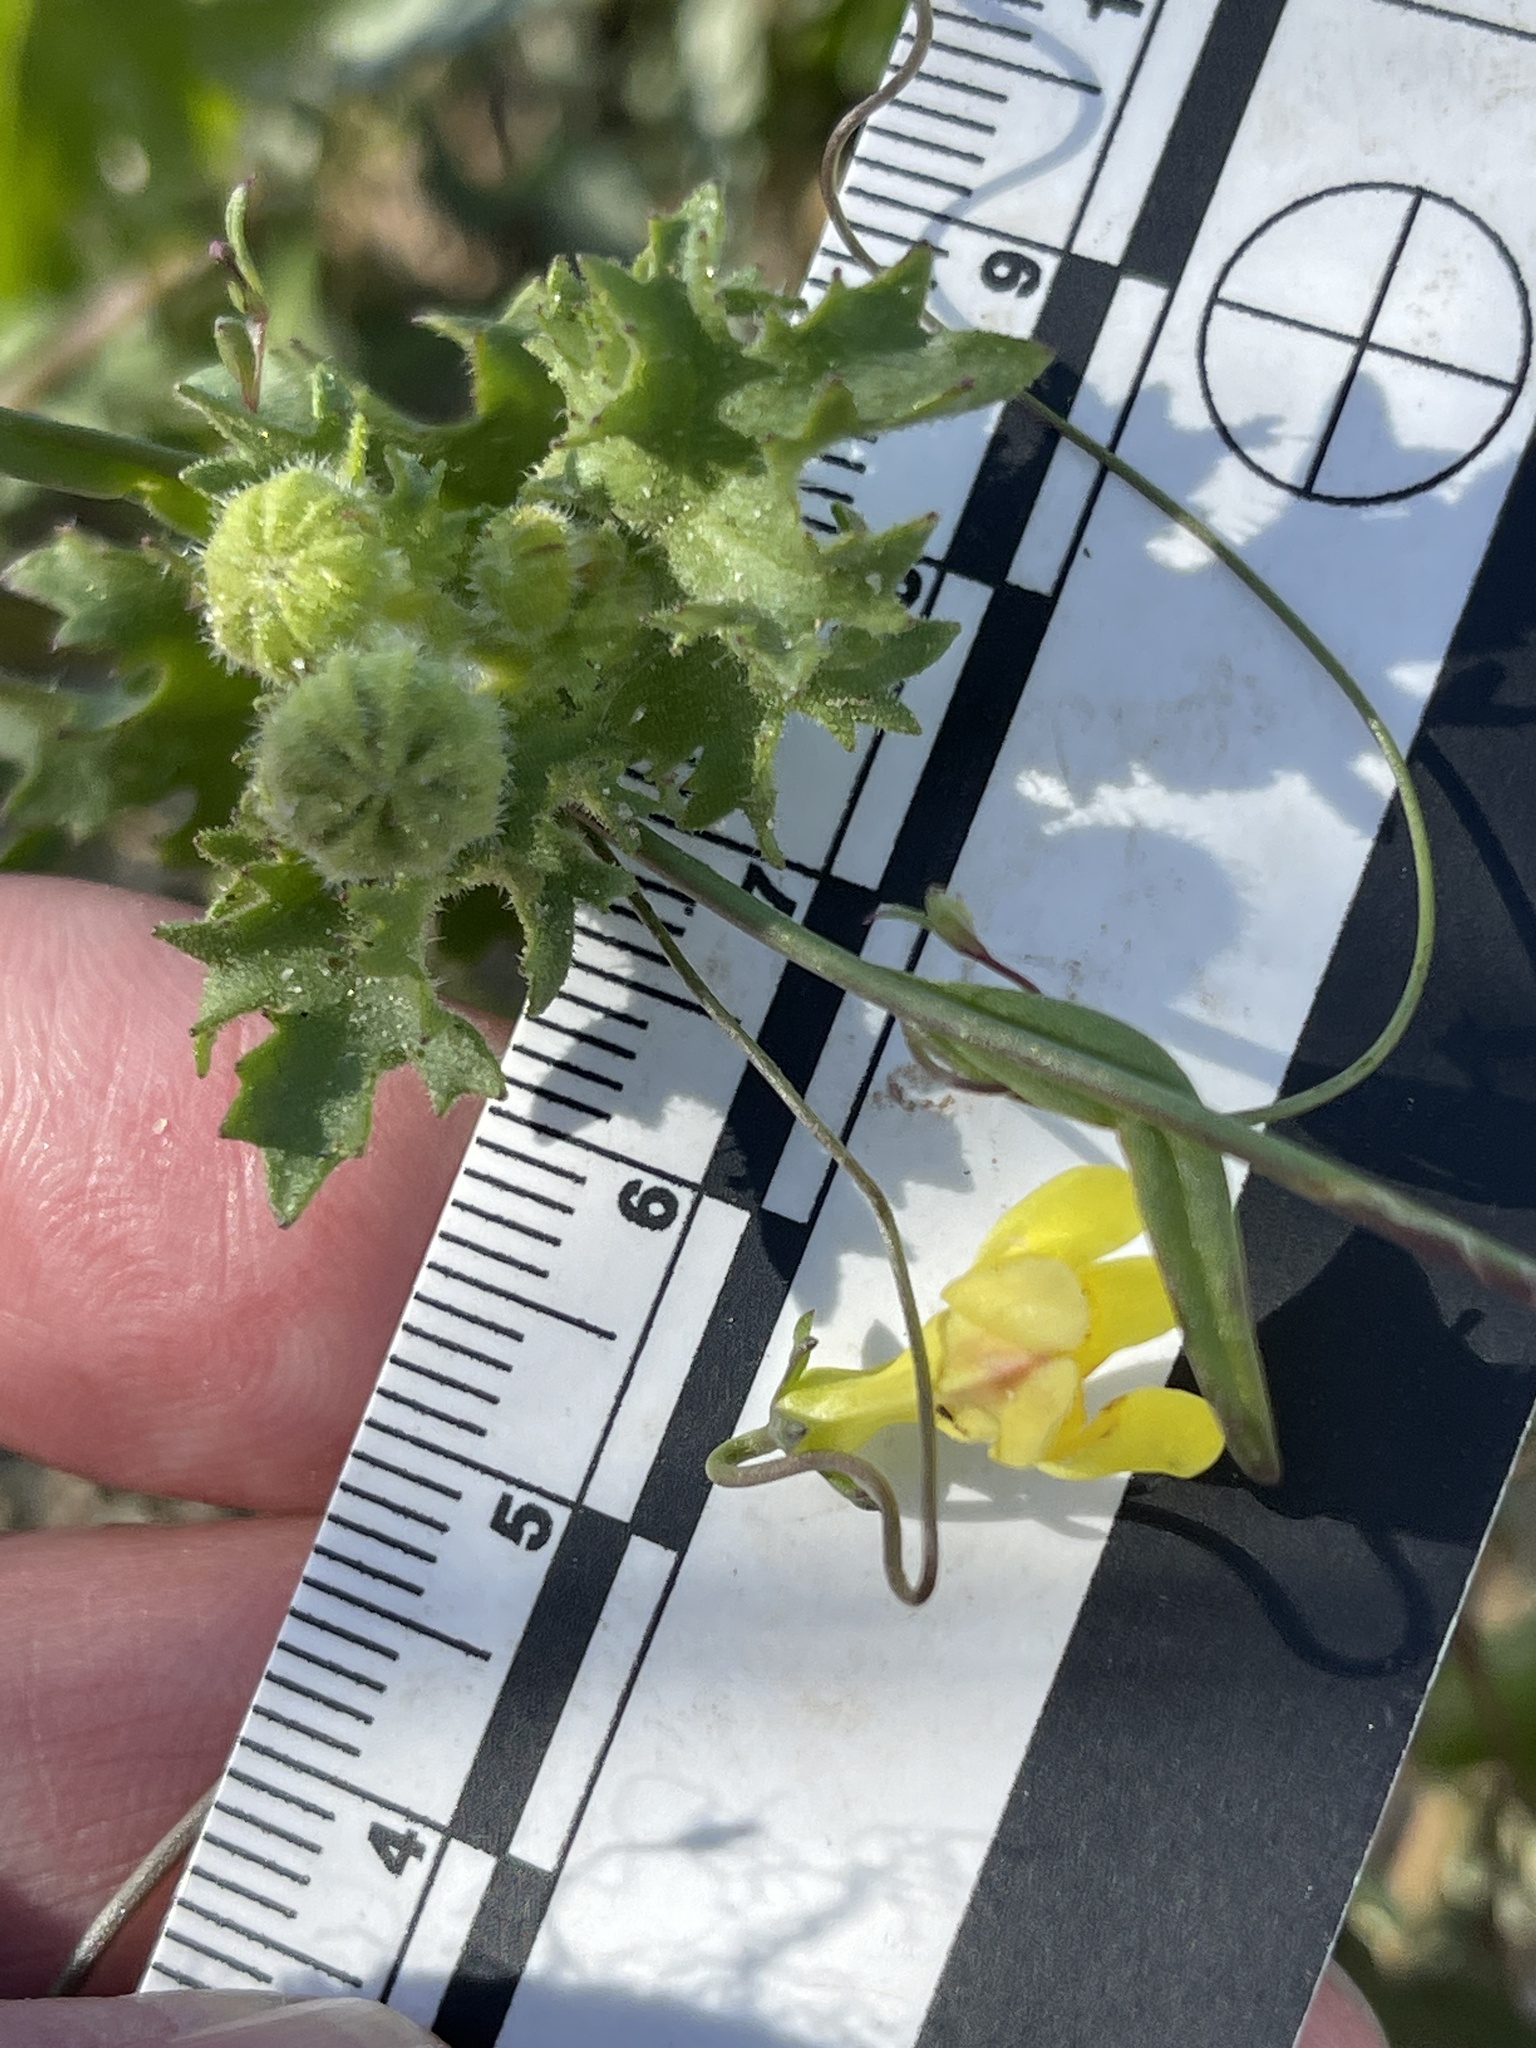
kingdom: Plantae
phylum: Tracheophyta
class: Magnoliopsida
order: Lamiales
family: Plantaginaceae
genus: Neogaerrhinum
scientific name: Neogaerrhinum filipes
